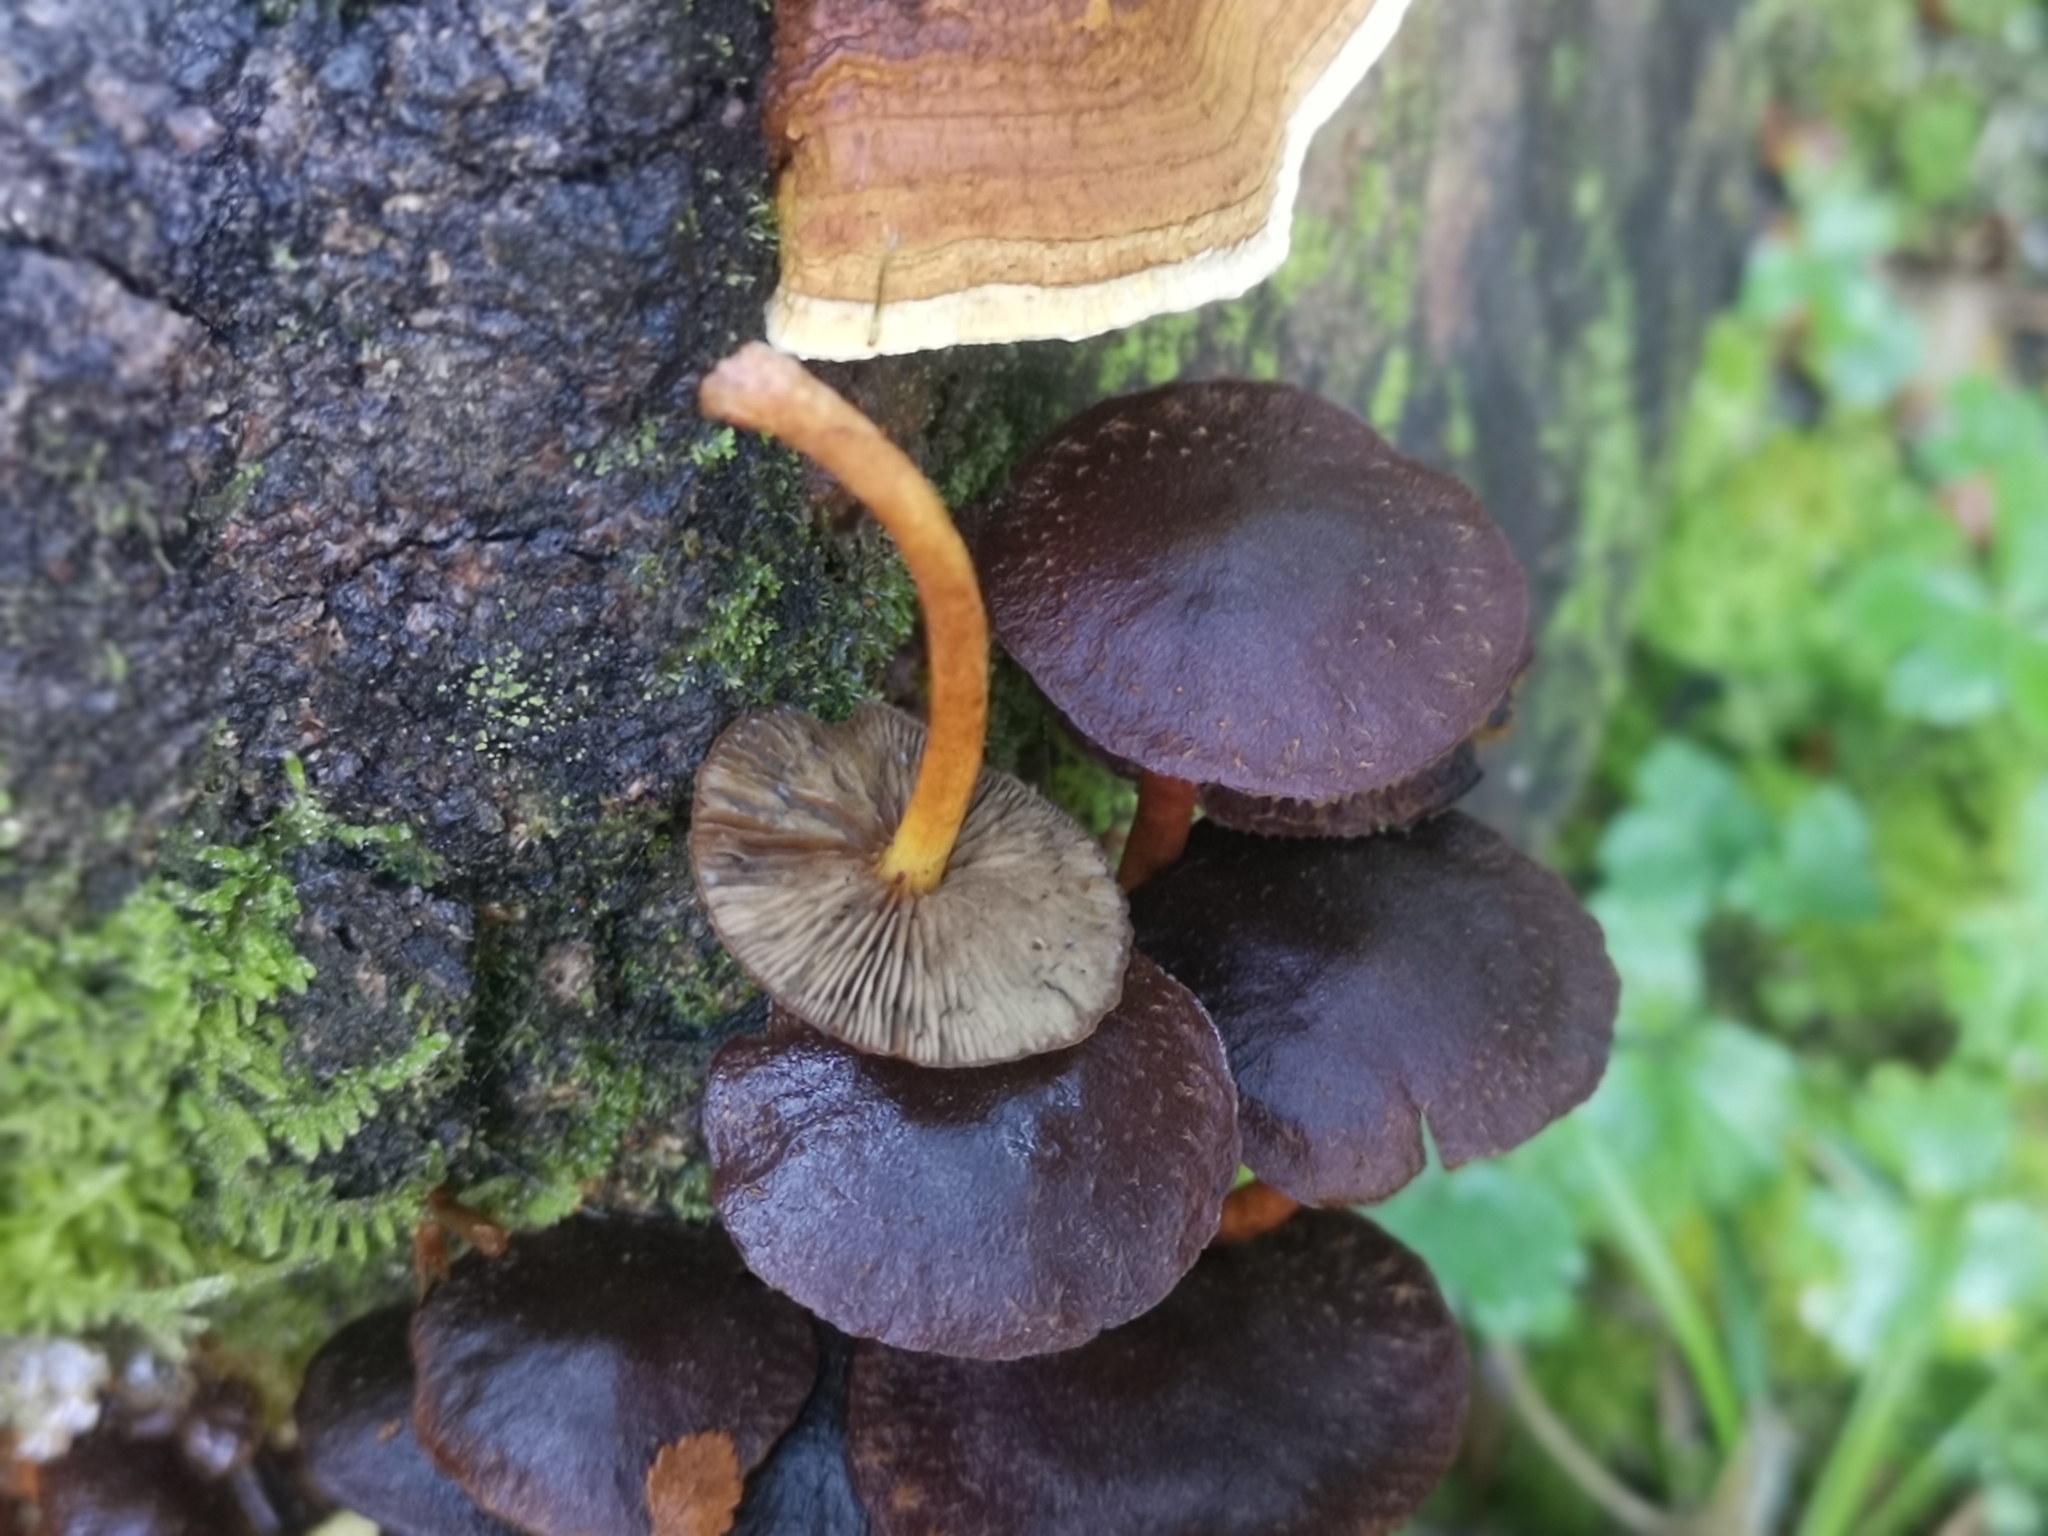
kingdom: Fungi
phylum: Basidiomycota
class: Agaricomycetes
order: Agaricales
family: Strophariaceae
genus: Hypholoma
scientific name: Hypholoma brunneum
